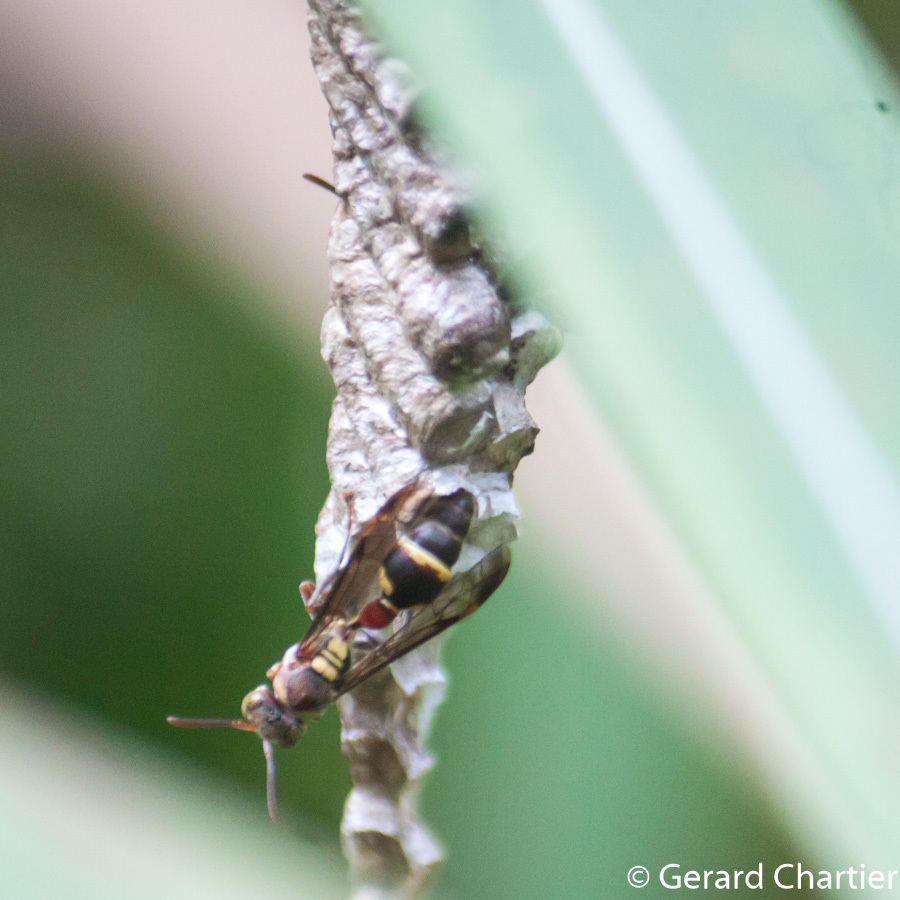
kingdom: Animalia
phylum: Arthropoda
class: Insecta
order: Hymenoptera
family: Vespidae
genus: Ropalidia
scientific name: Ropalidia stigma
